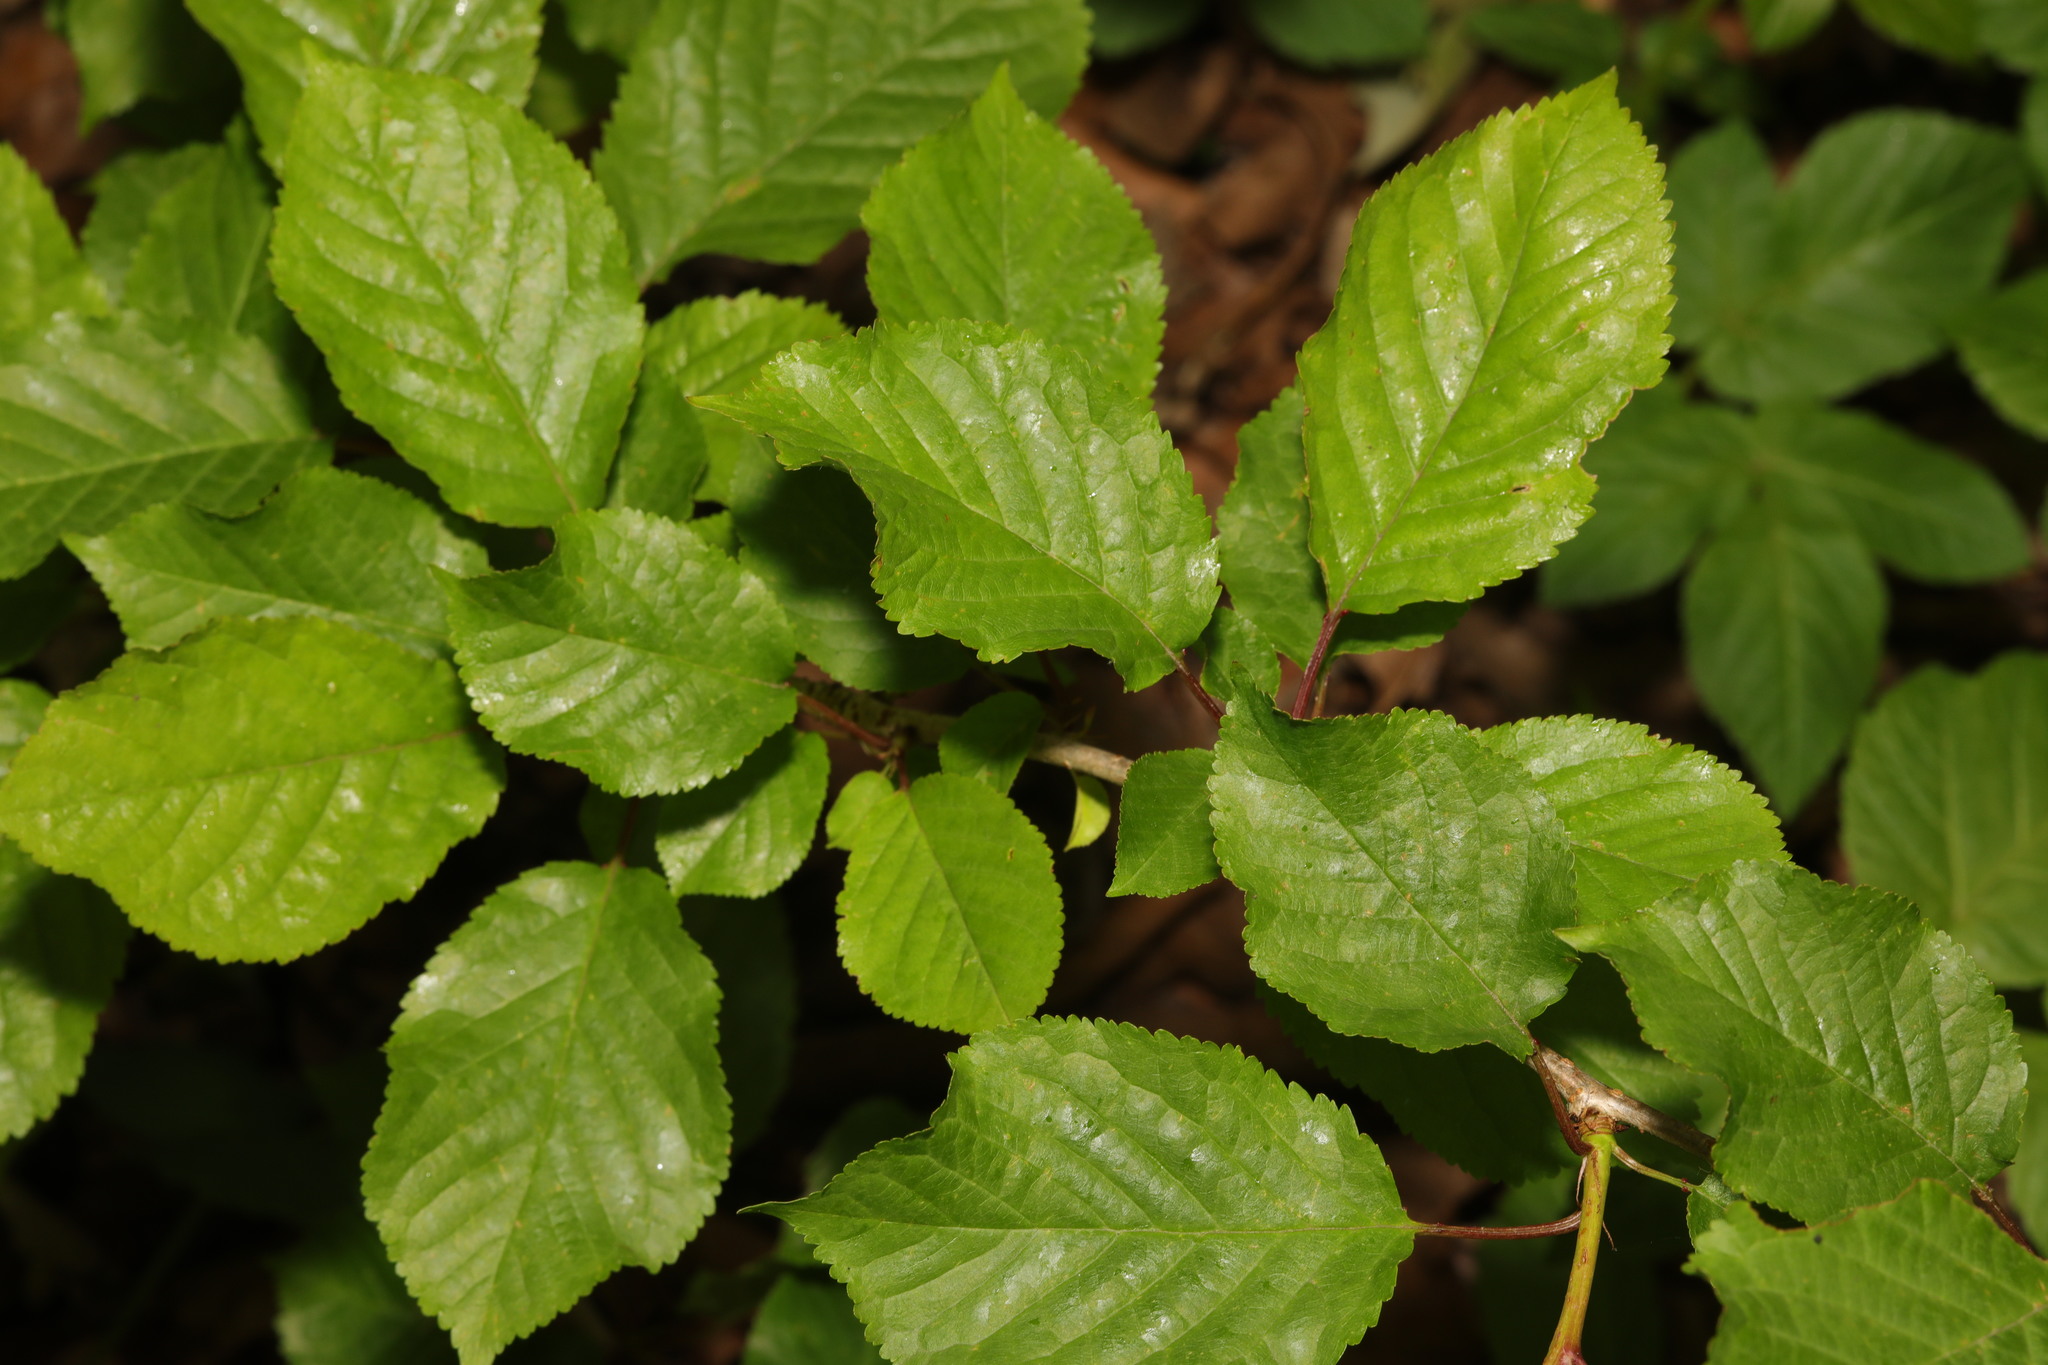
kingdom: Plantae
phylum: Tracheophyta
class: Magnoliopsida
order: Rosales
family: Rosaceae
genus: Prunus
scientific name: Prunus avium
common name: Sweet cherry
